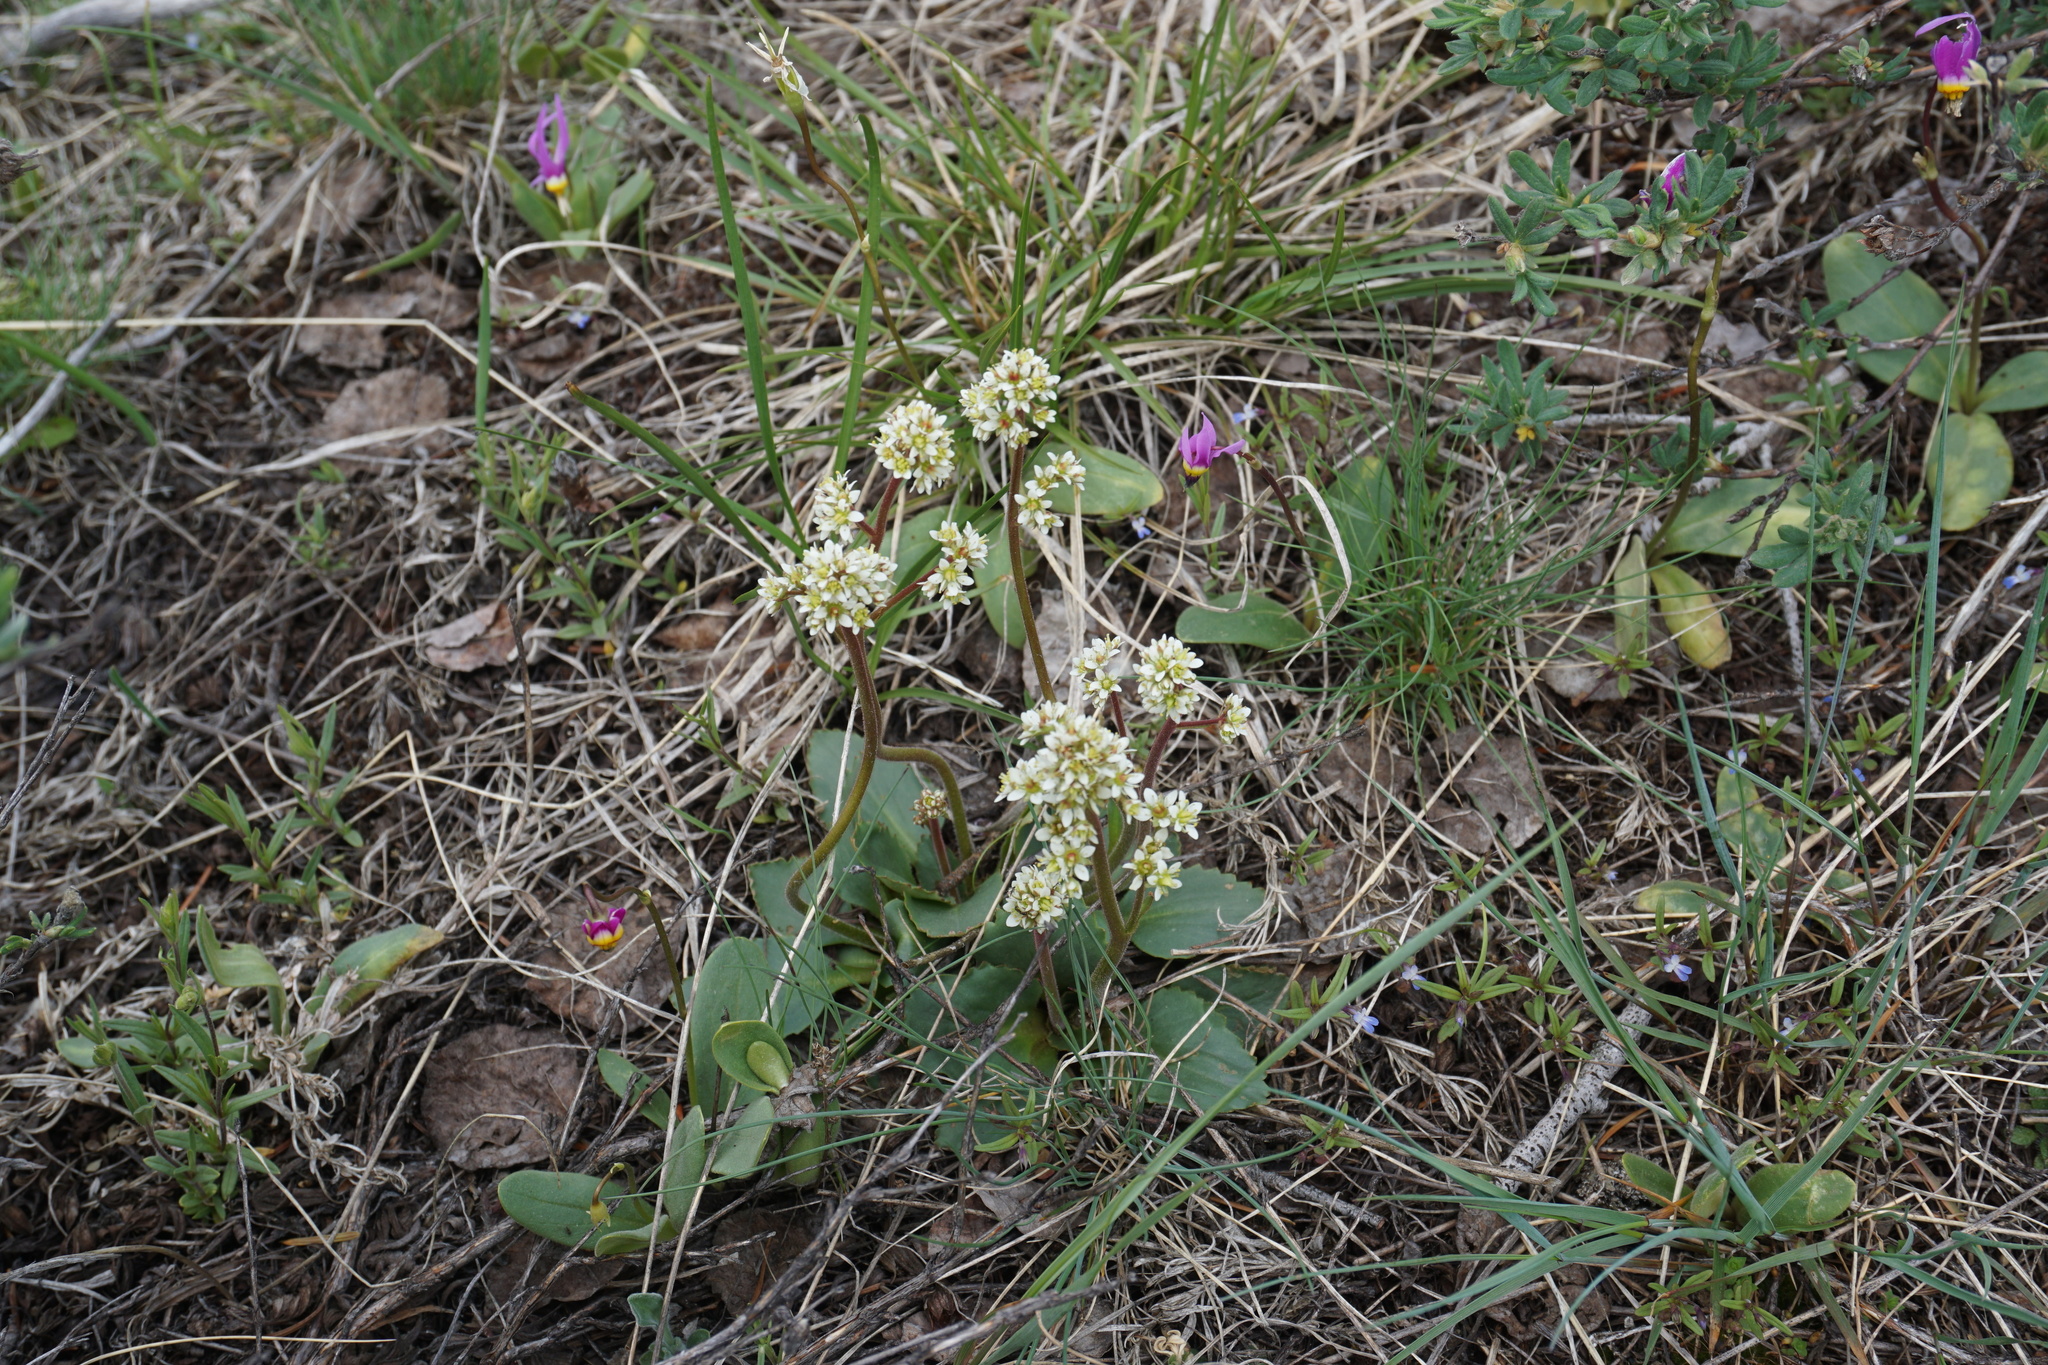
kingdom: Plantae
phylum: Tracheophyta
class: Magnoliopsida
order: Saxifragales
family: Saxifragaceae
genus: Micranthes
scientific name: Micranthes occidentalis
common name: Alberta saxifrage
